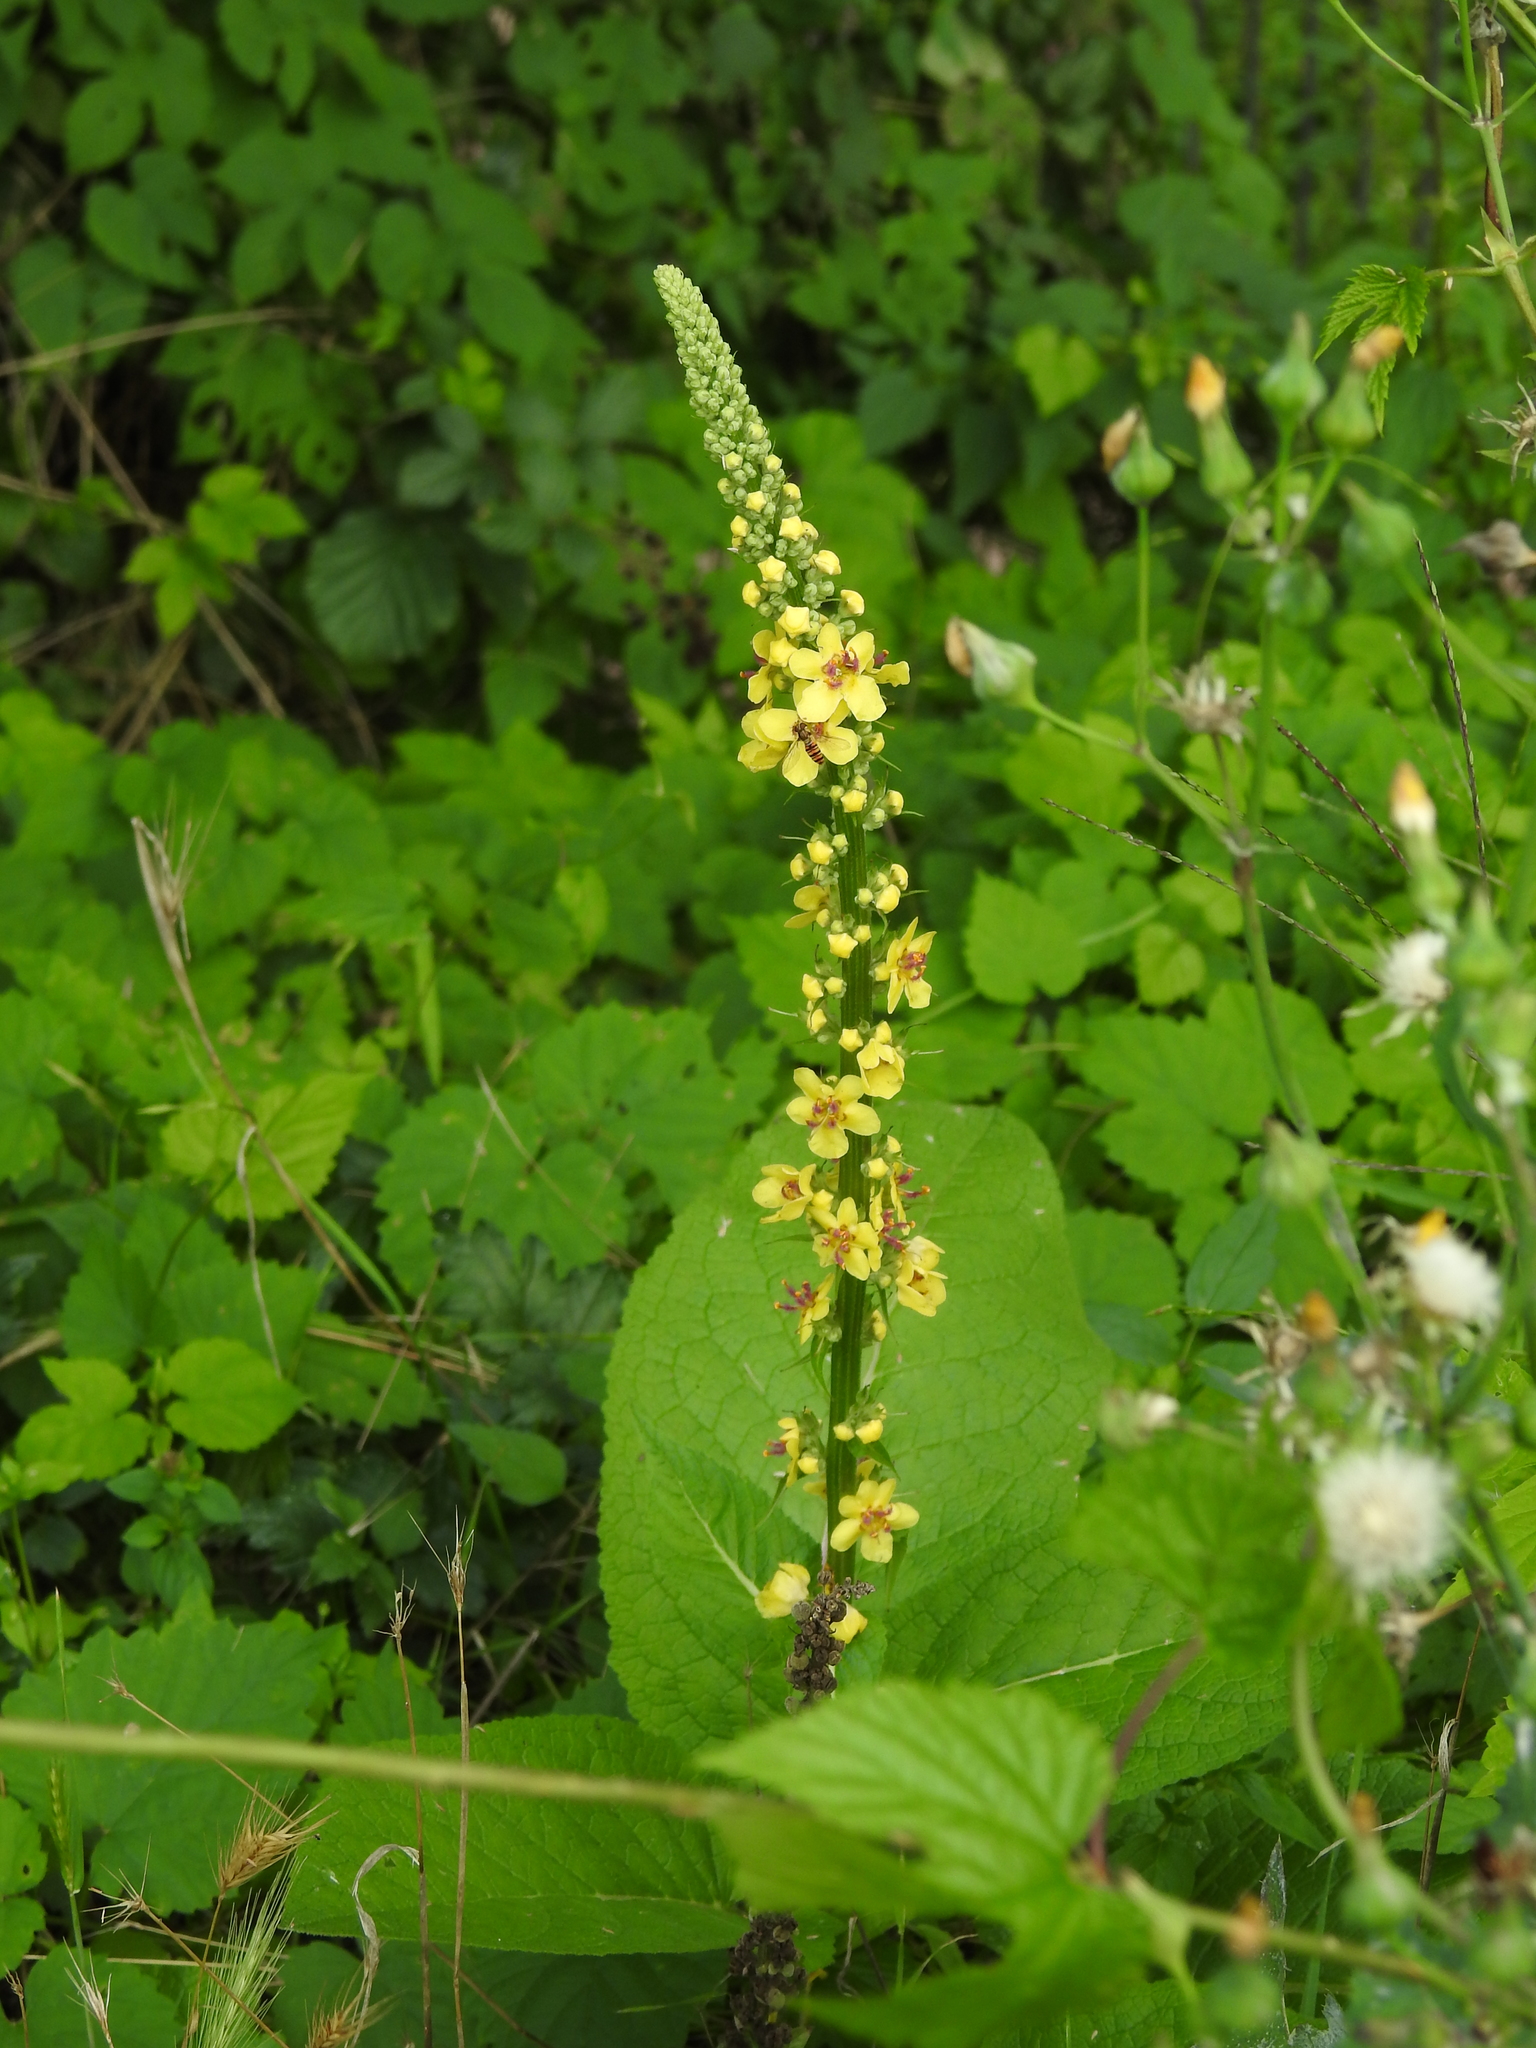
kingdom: Plantae
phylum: Tracheophyta
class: Magnoliopsida
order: Lamiales
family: Scrophulariaceae
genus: Verbascum
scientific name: Verbascum nigrum
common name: Dark mullein
